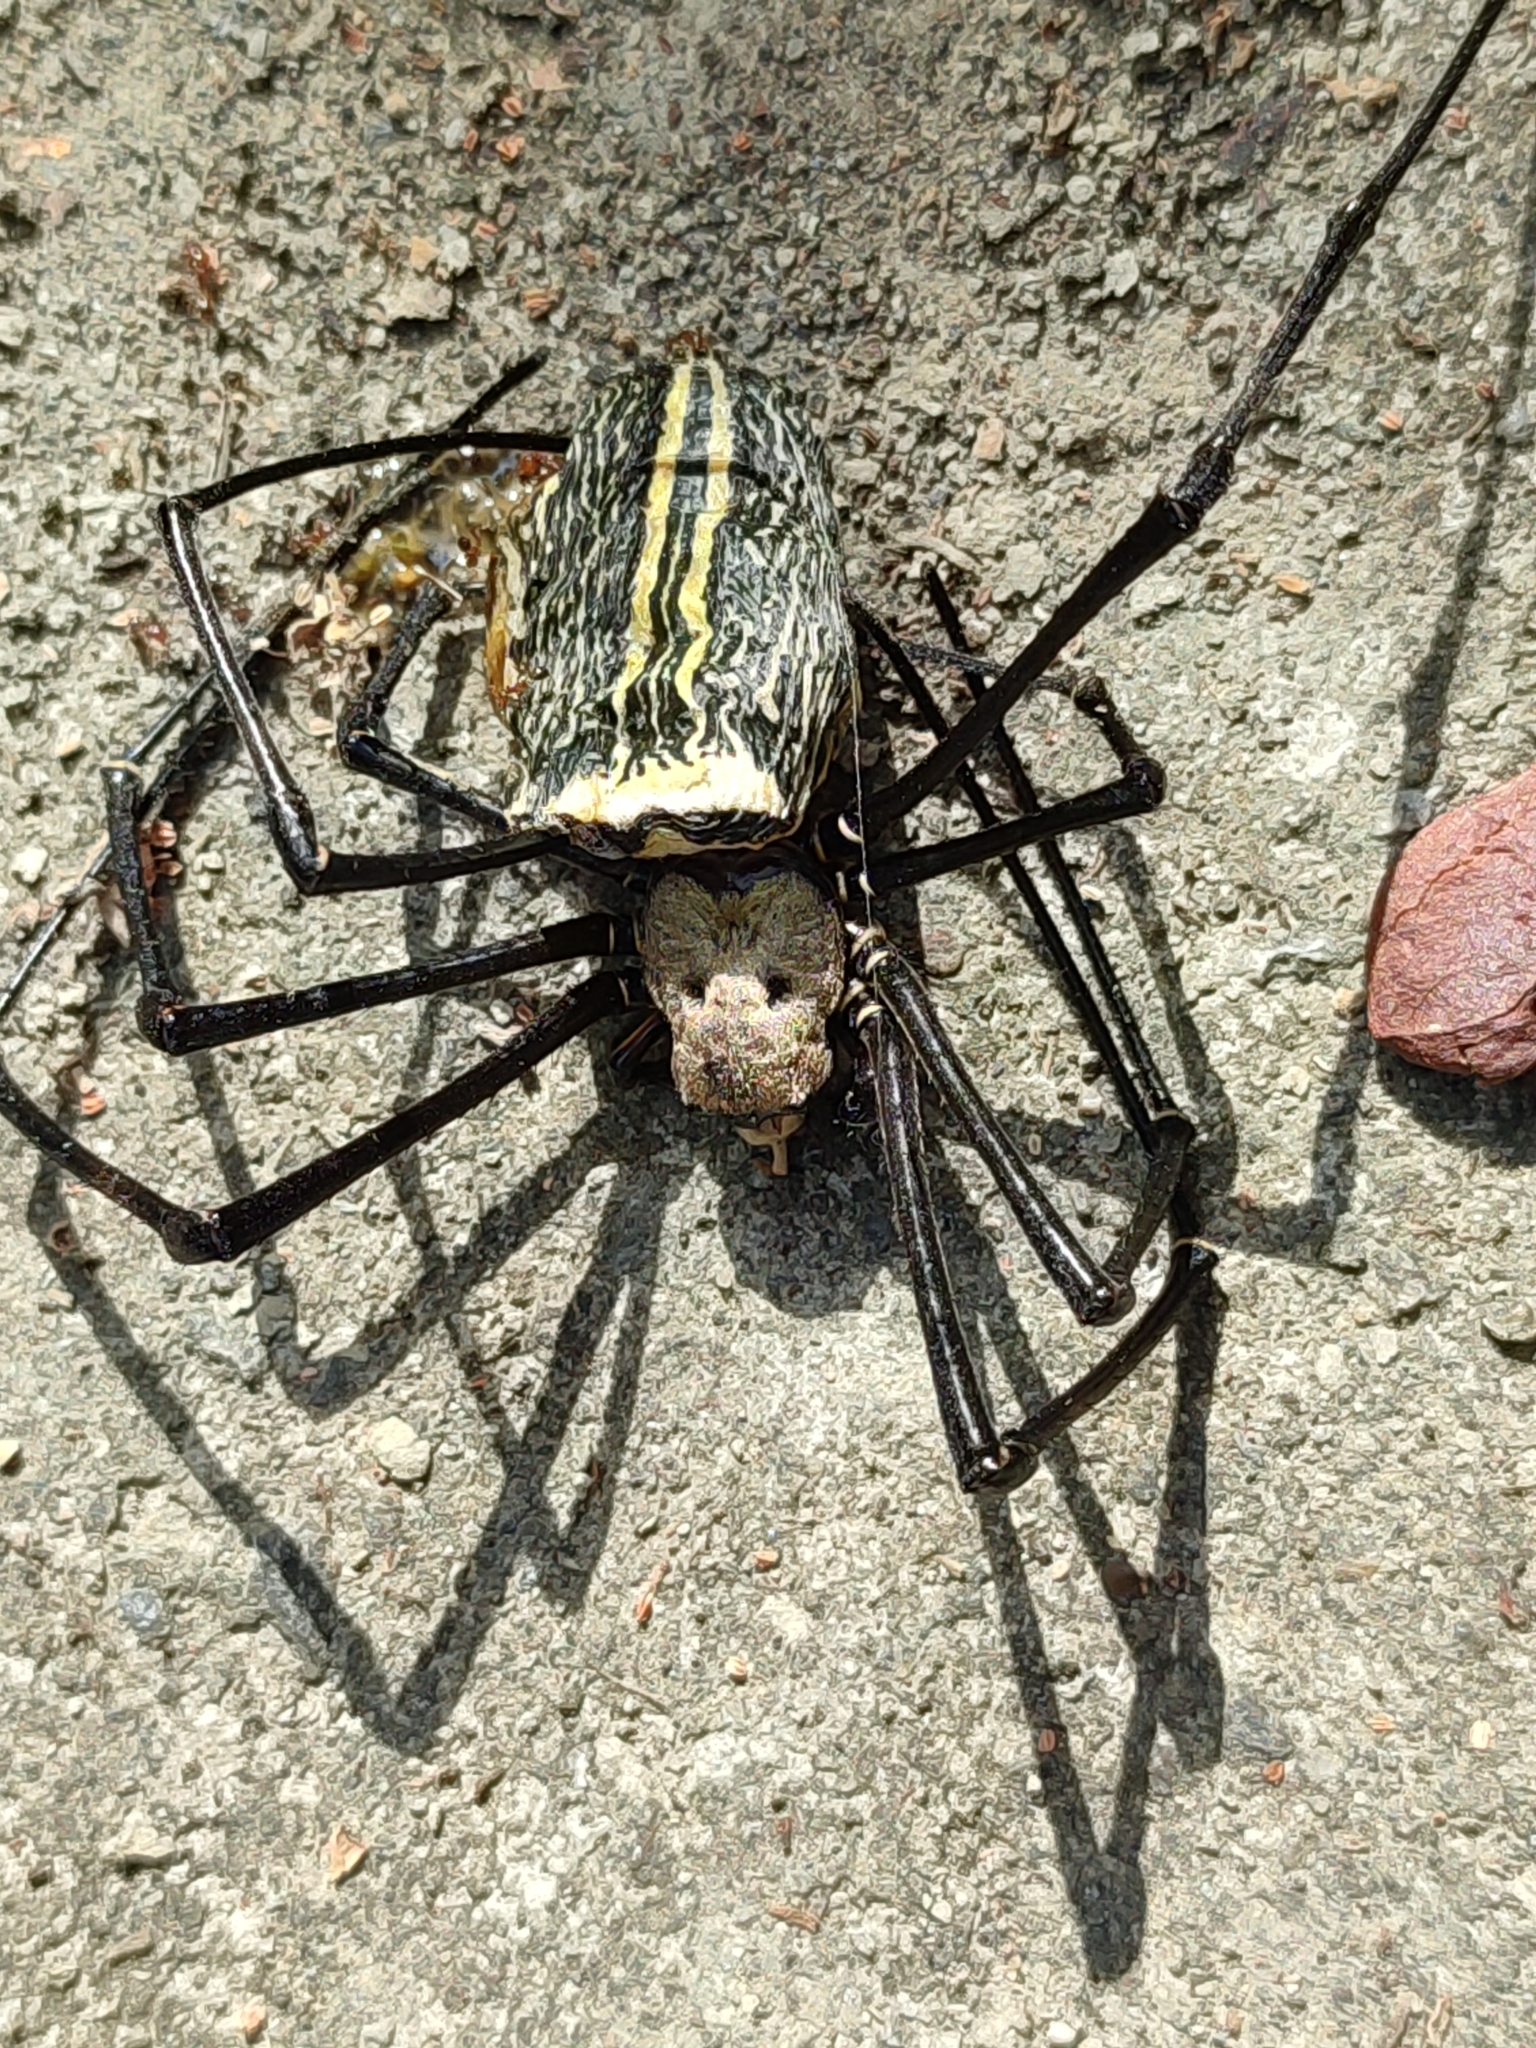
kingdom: Animalia
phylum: Arthropoda
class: Arachnida
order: Araneae
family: Araneidae
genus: Nephila
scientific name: Nephila pilipes
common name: Giant golden orb weaver
